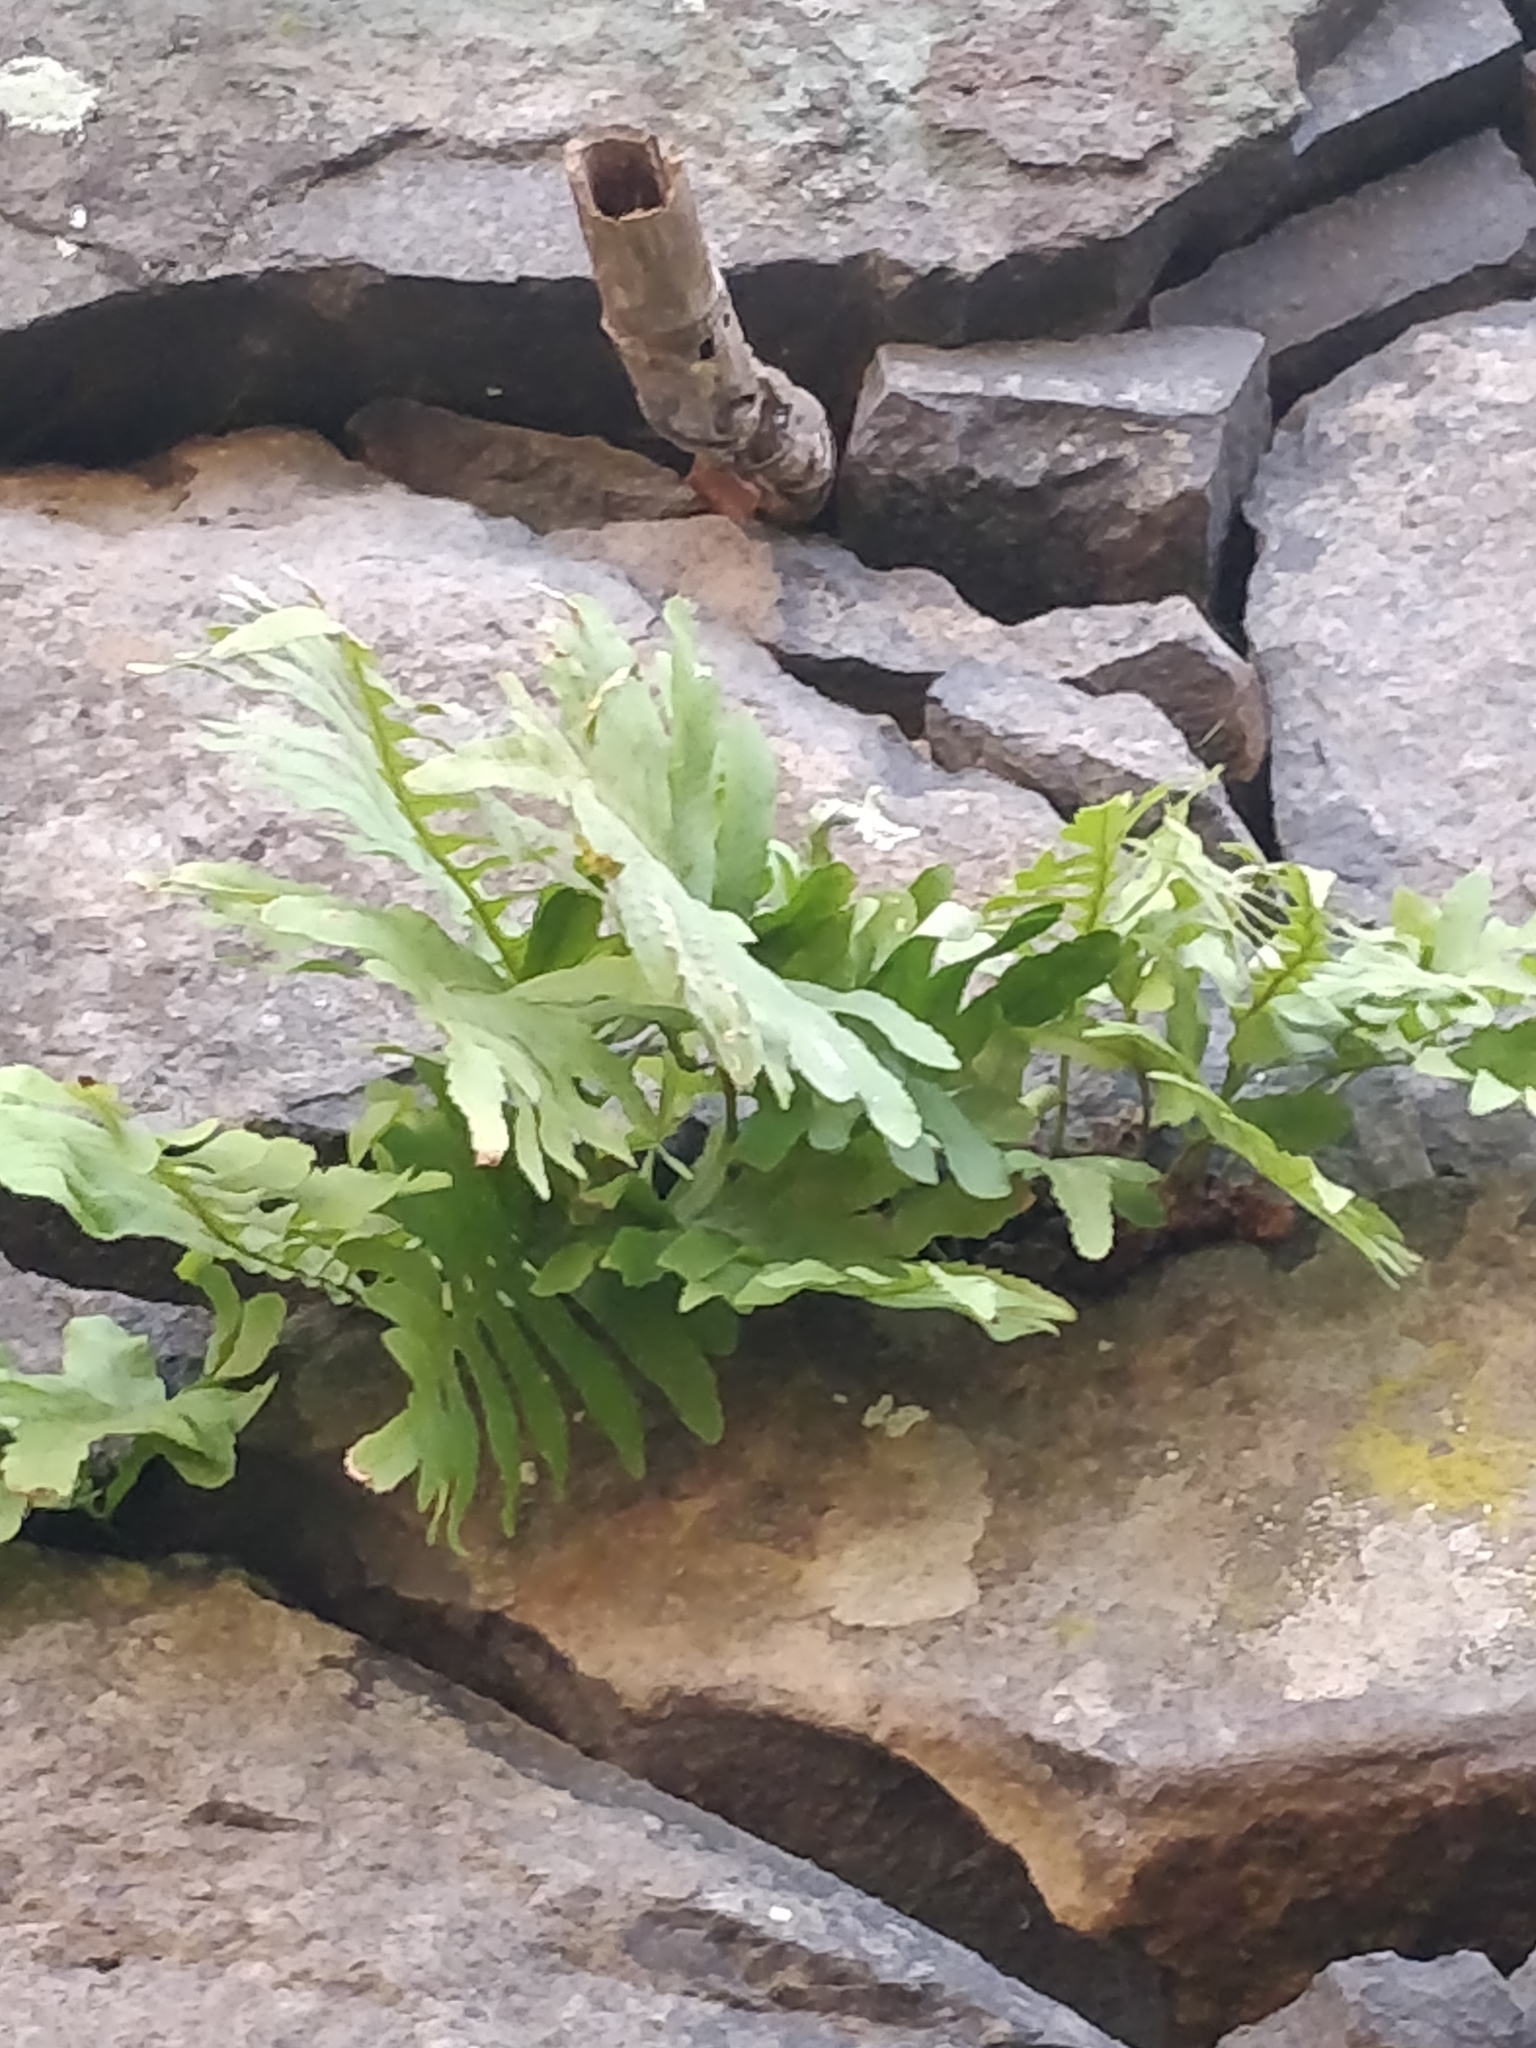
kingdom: Plantae
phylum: Tracheophyta
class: Polypodiopsida
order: Polypodiales
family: Polypodiaceae
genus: Polypodium
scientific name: Polypodium macaronesicum
